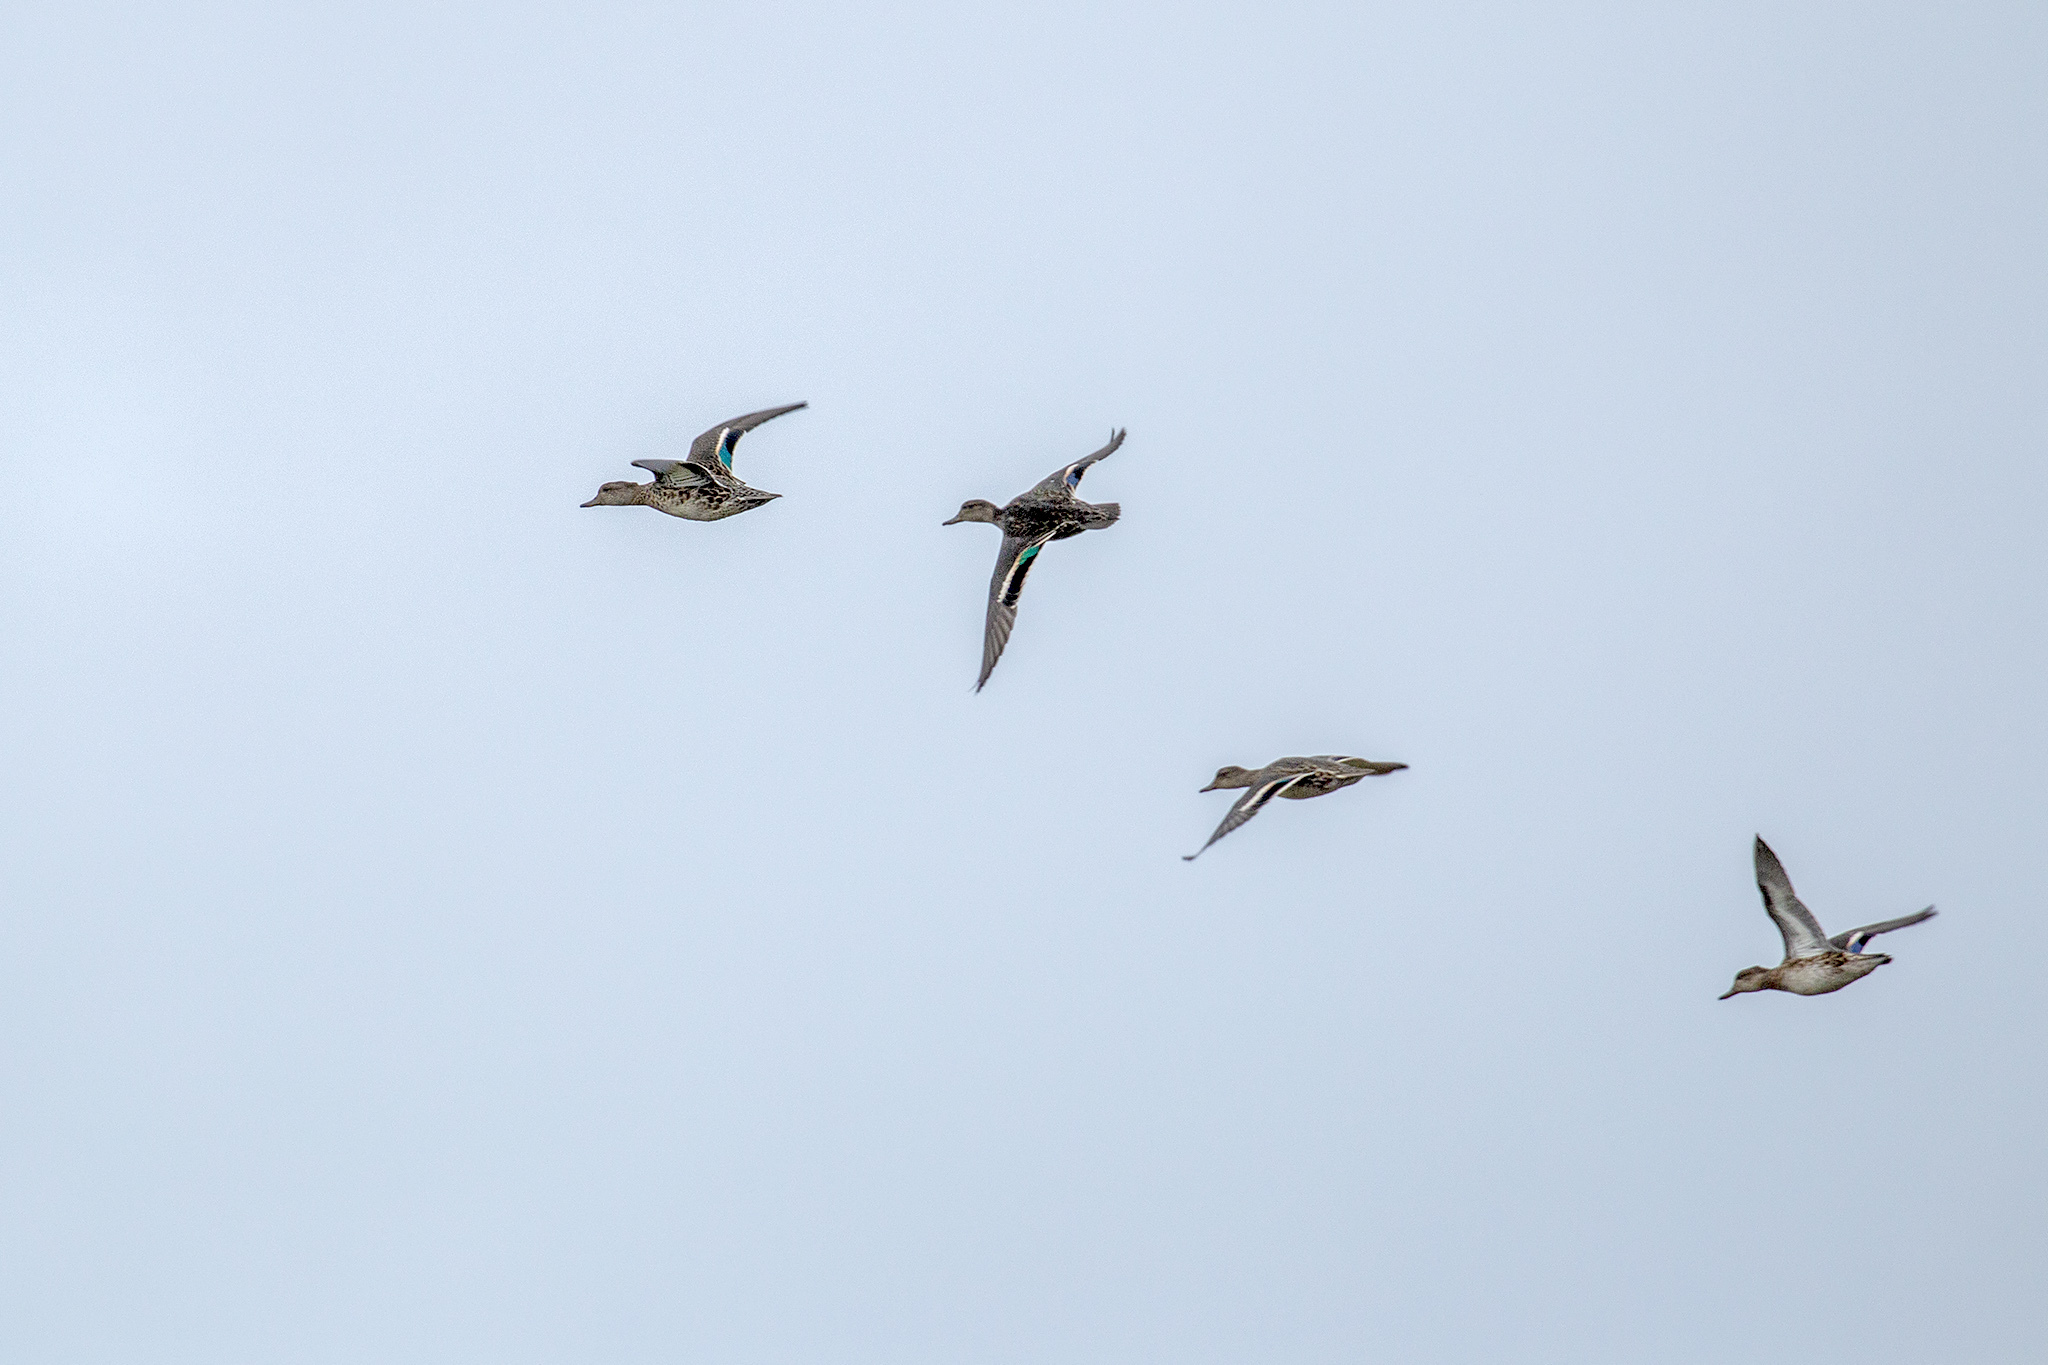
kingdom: Animalia
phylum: Chordata
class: Aves
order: Anseriformes
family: Anatidae
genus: Anas
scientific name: Anas crecca
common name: Eurasian teal
